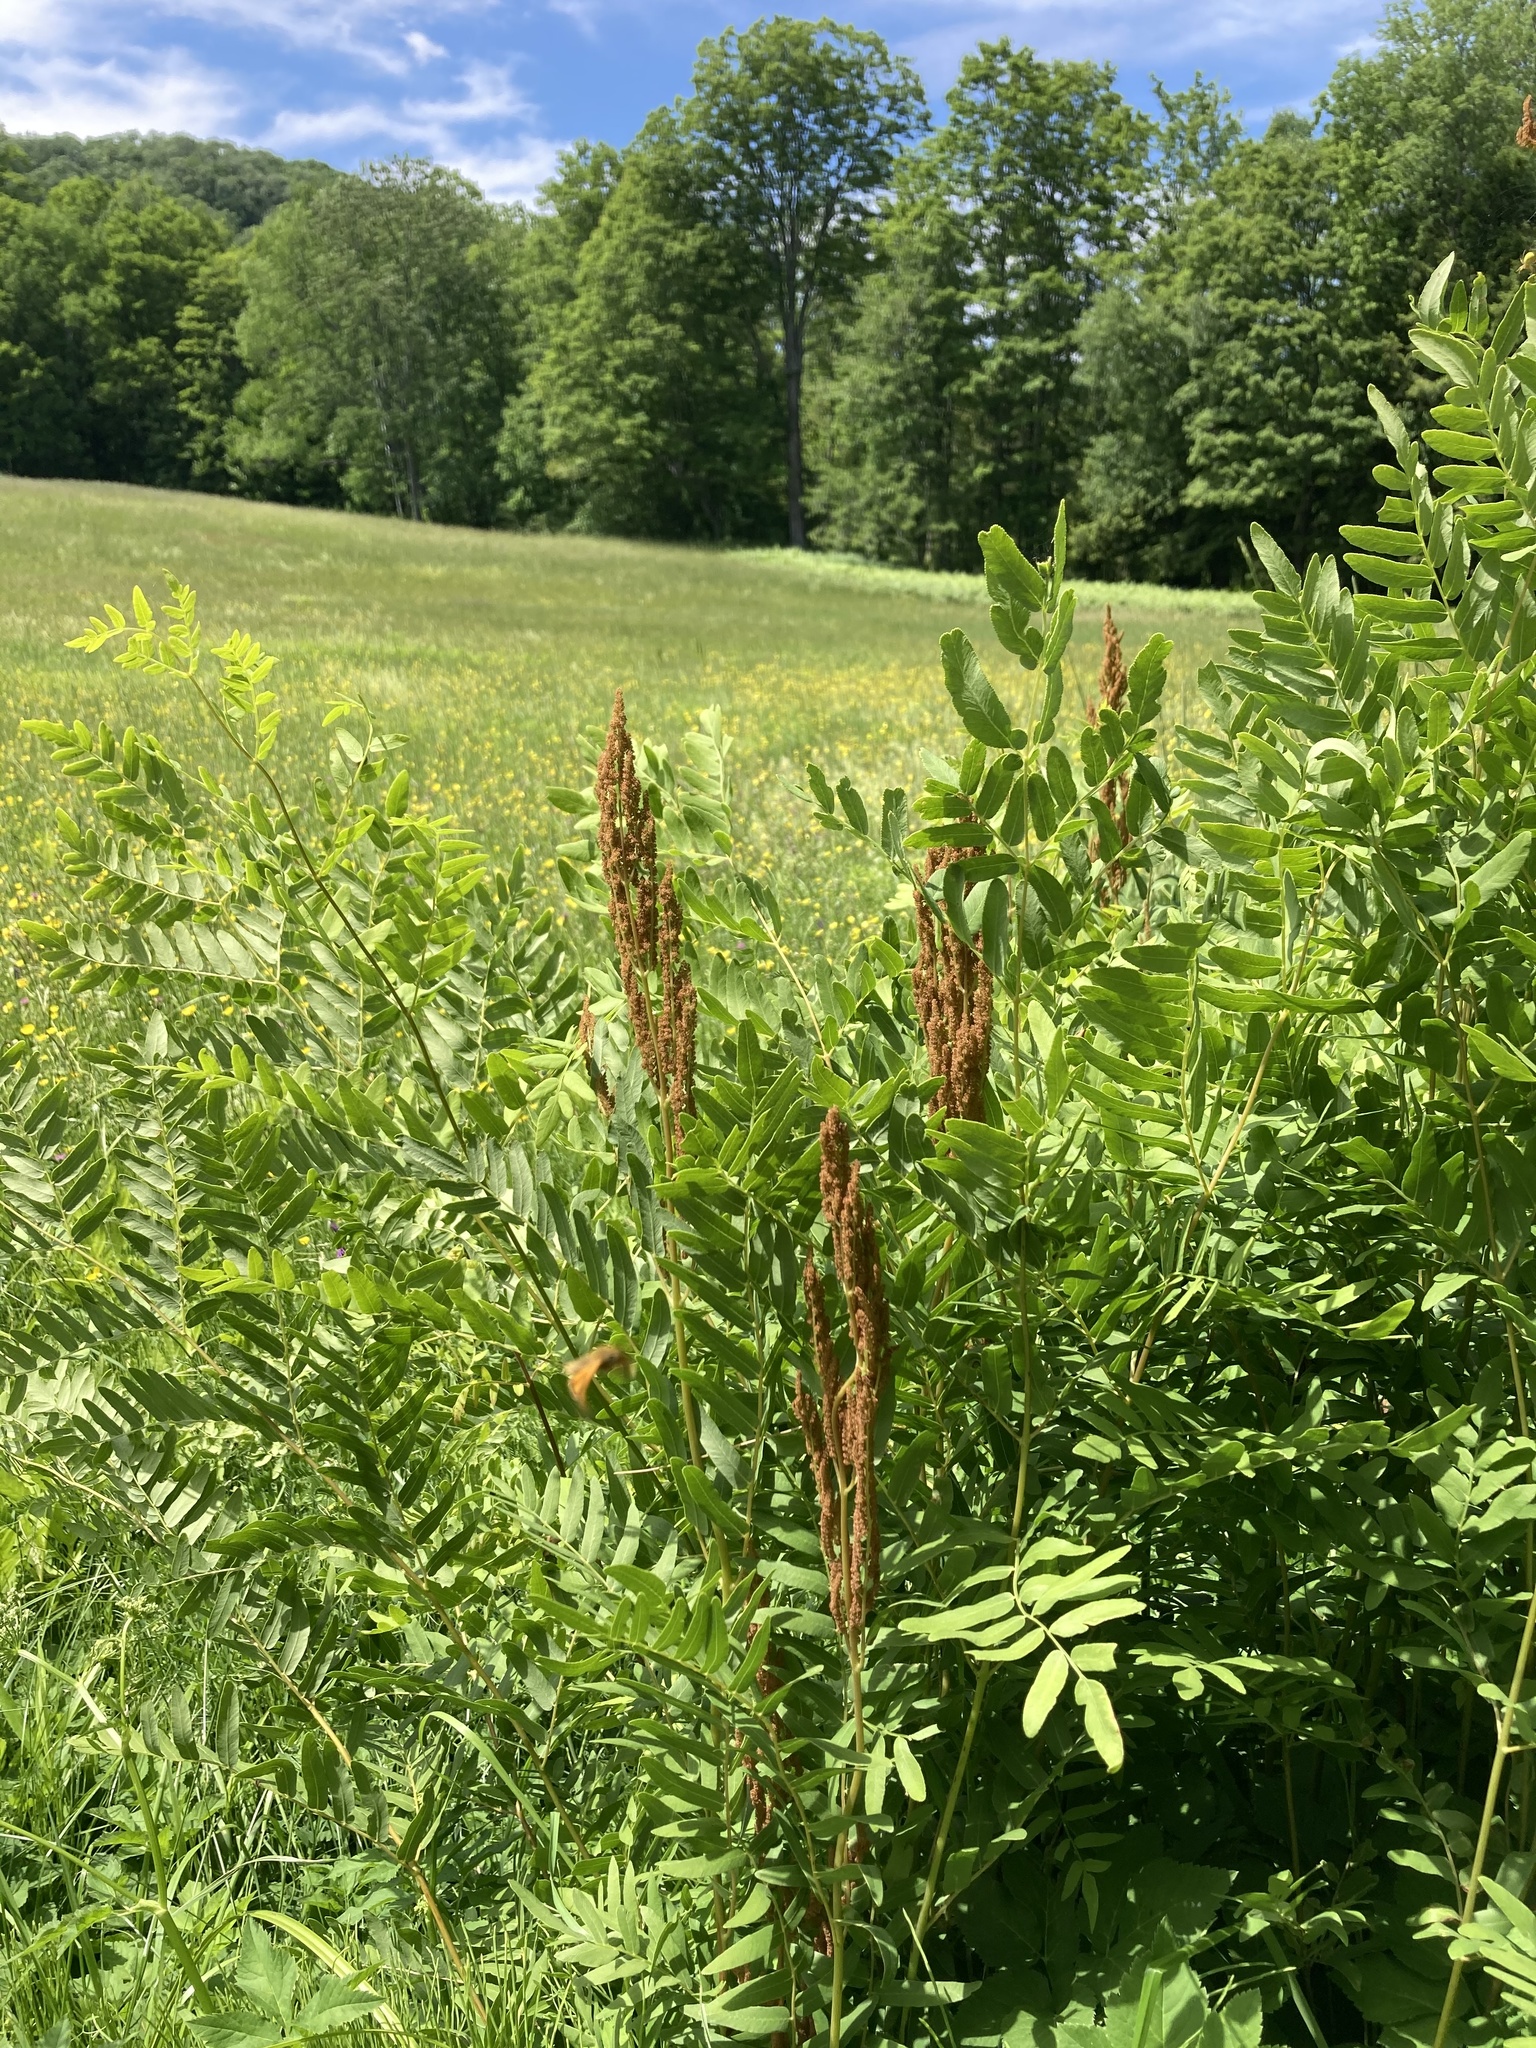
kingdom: Plantae
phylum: Tracheophyta
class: Polypodiopsida
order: Osmundales
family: Osmundaceae
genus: Osmunda
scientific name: Osmunda spectabilis
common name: American royal fern
